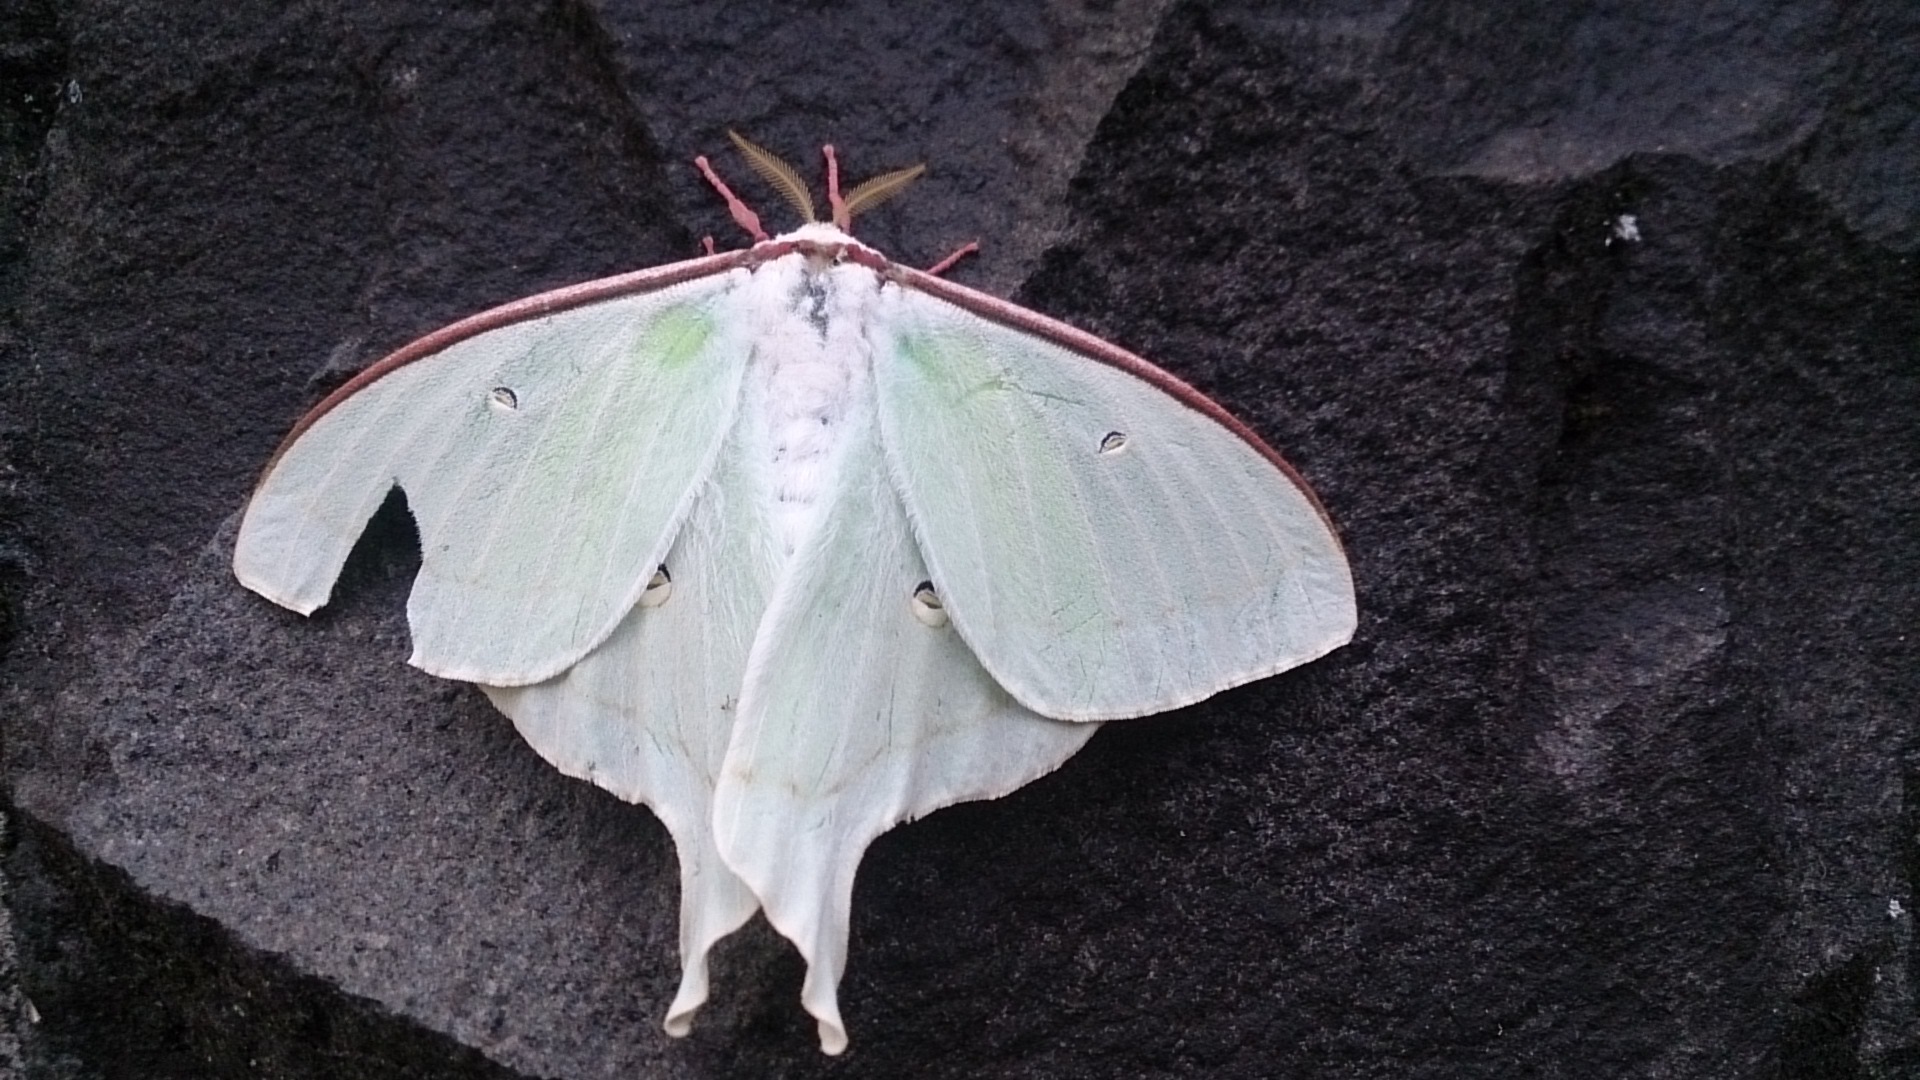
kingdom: Animalia
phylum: Arthropoda
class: Insecta
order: Lepidoptera
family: Saturniidae
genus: Actias
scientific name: Actias artemis
